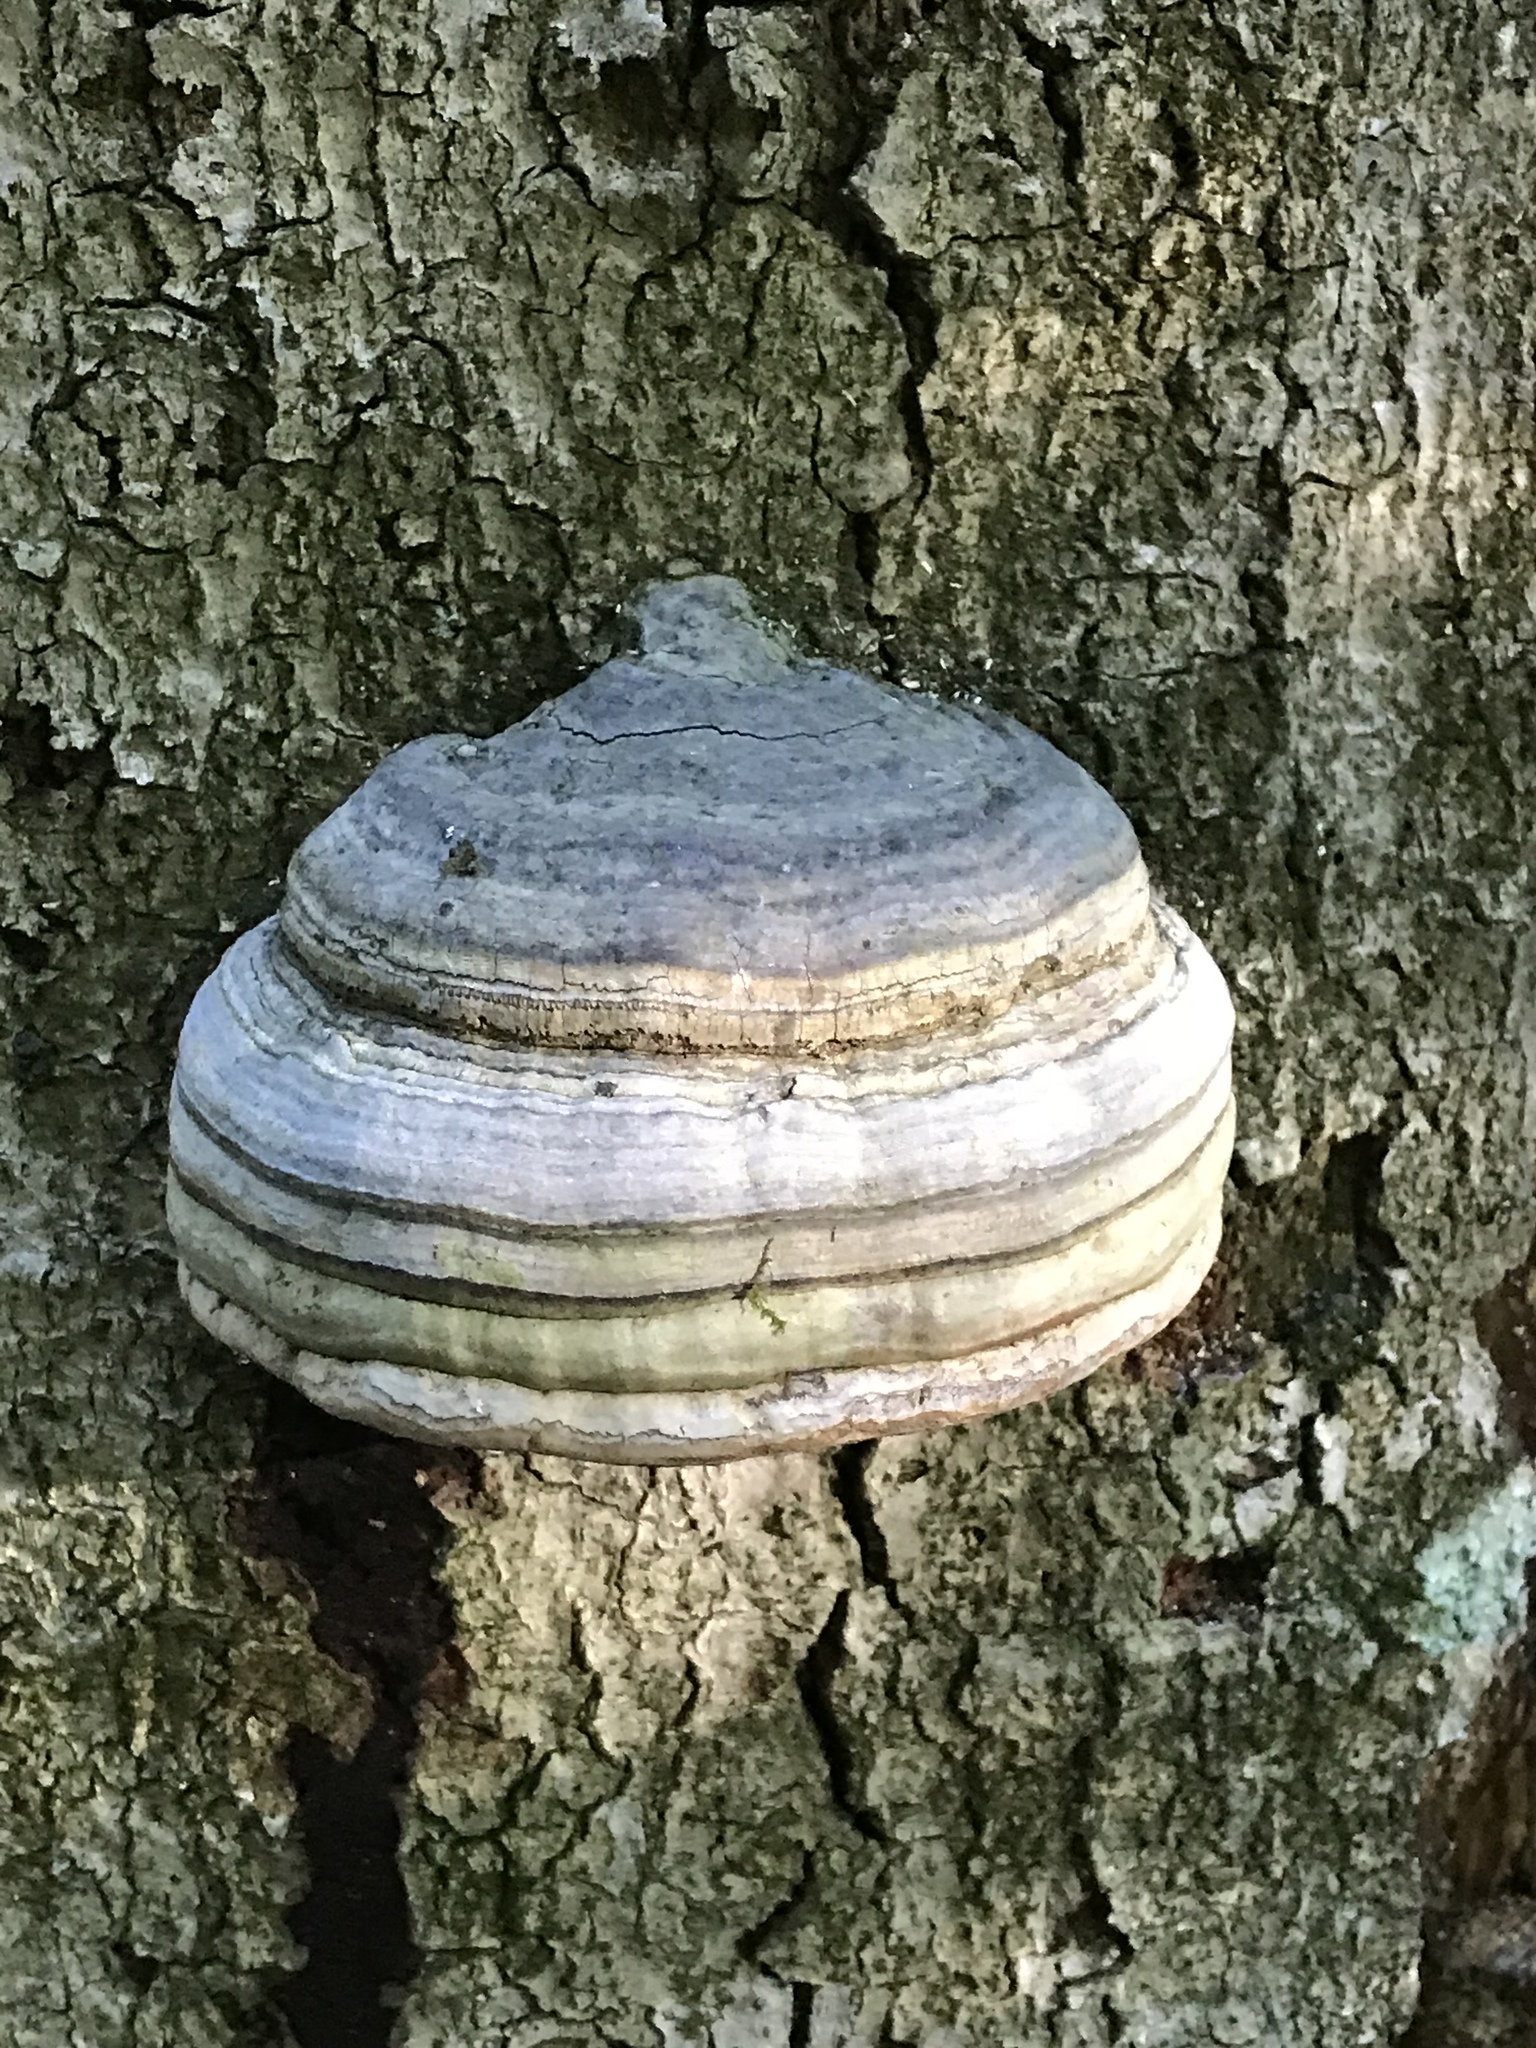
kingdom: Fungi
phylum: Basidiomycota
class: Agaricomycetes
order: Polyporales
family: Polyporaceae
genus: Fomes
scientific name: Fomes fomentarius
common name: Hoof fungus
